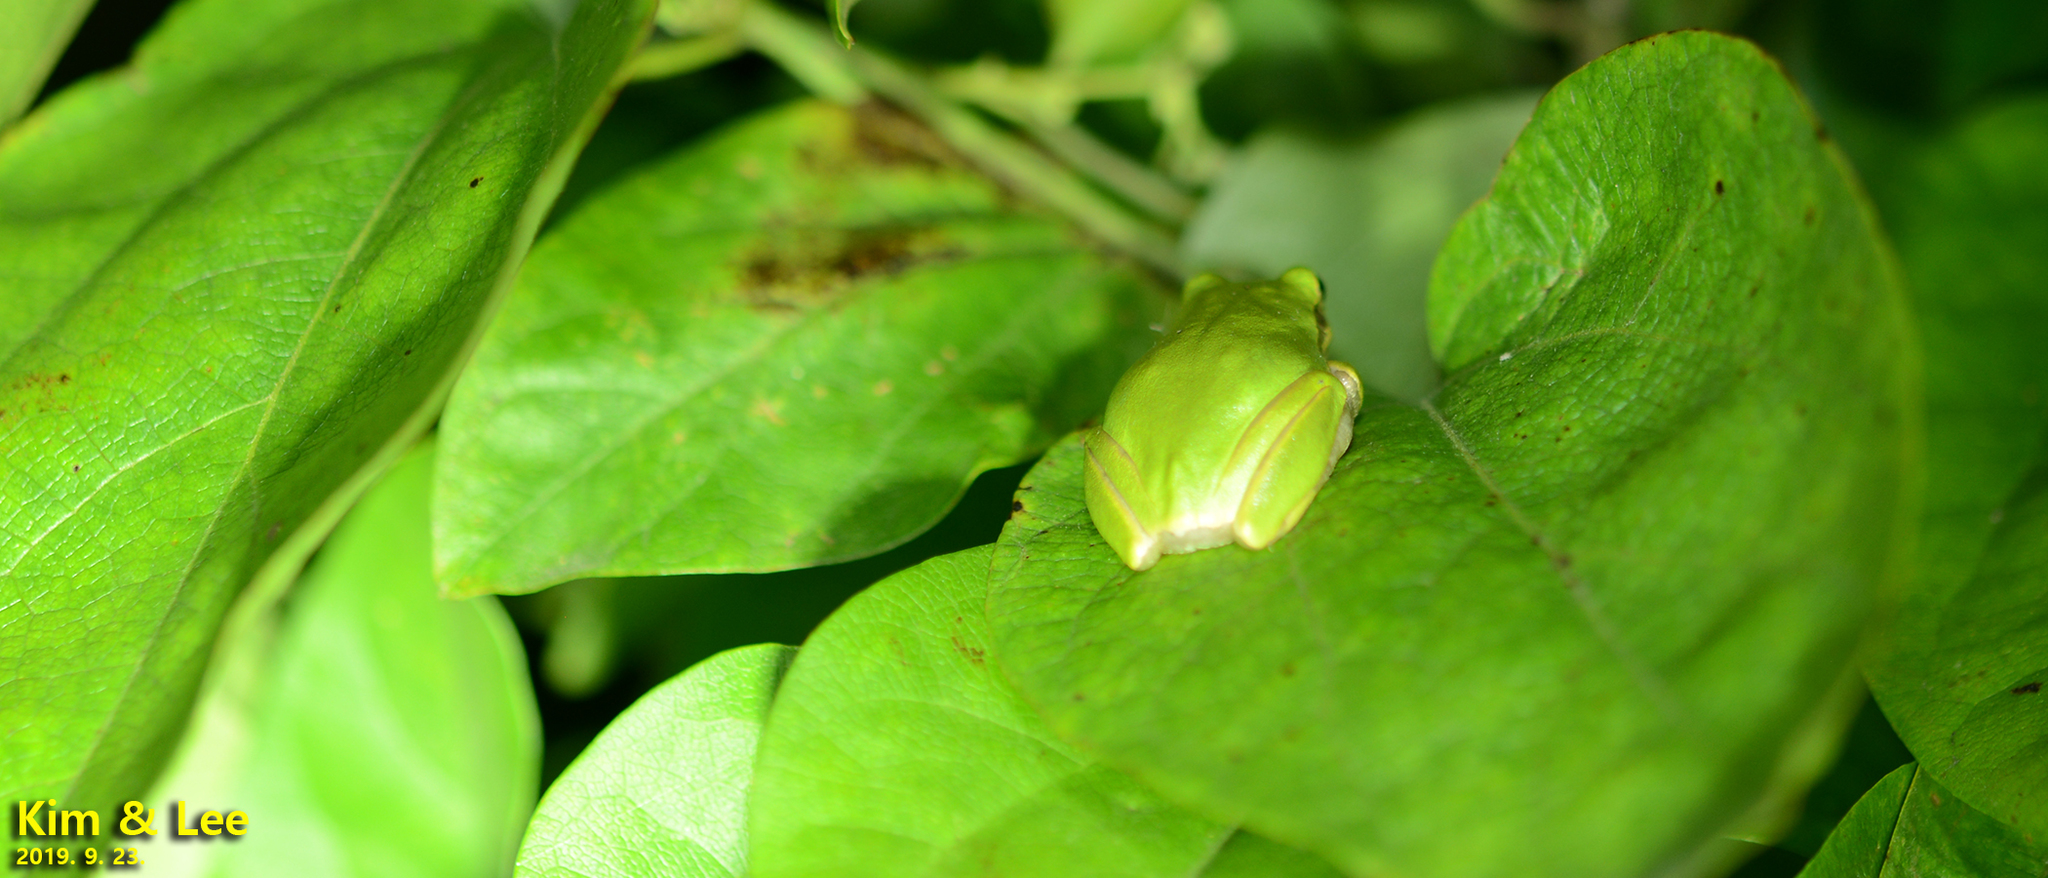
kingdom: Animalia
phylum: Chordata
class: Amphibia
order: Anura
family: Hylidae
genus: Dryophytes
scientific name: Dryophytes japonicus
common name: Japanese treefrog
